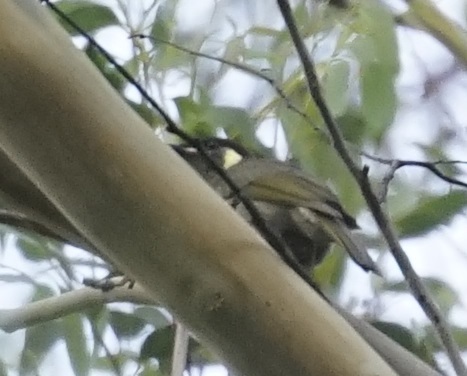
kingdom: Animalia
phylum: Chordata
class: Aves
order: Passeriformes
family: Meliphagidae
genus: Meliphaga
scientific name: Meliphaga lewinii
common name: Lewin's honeyeater
